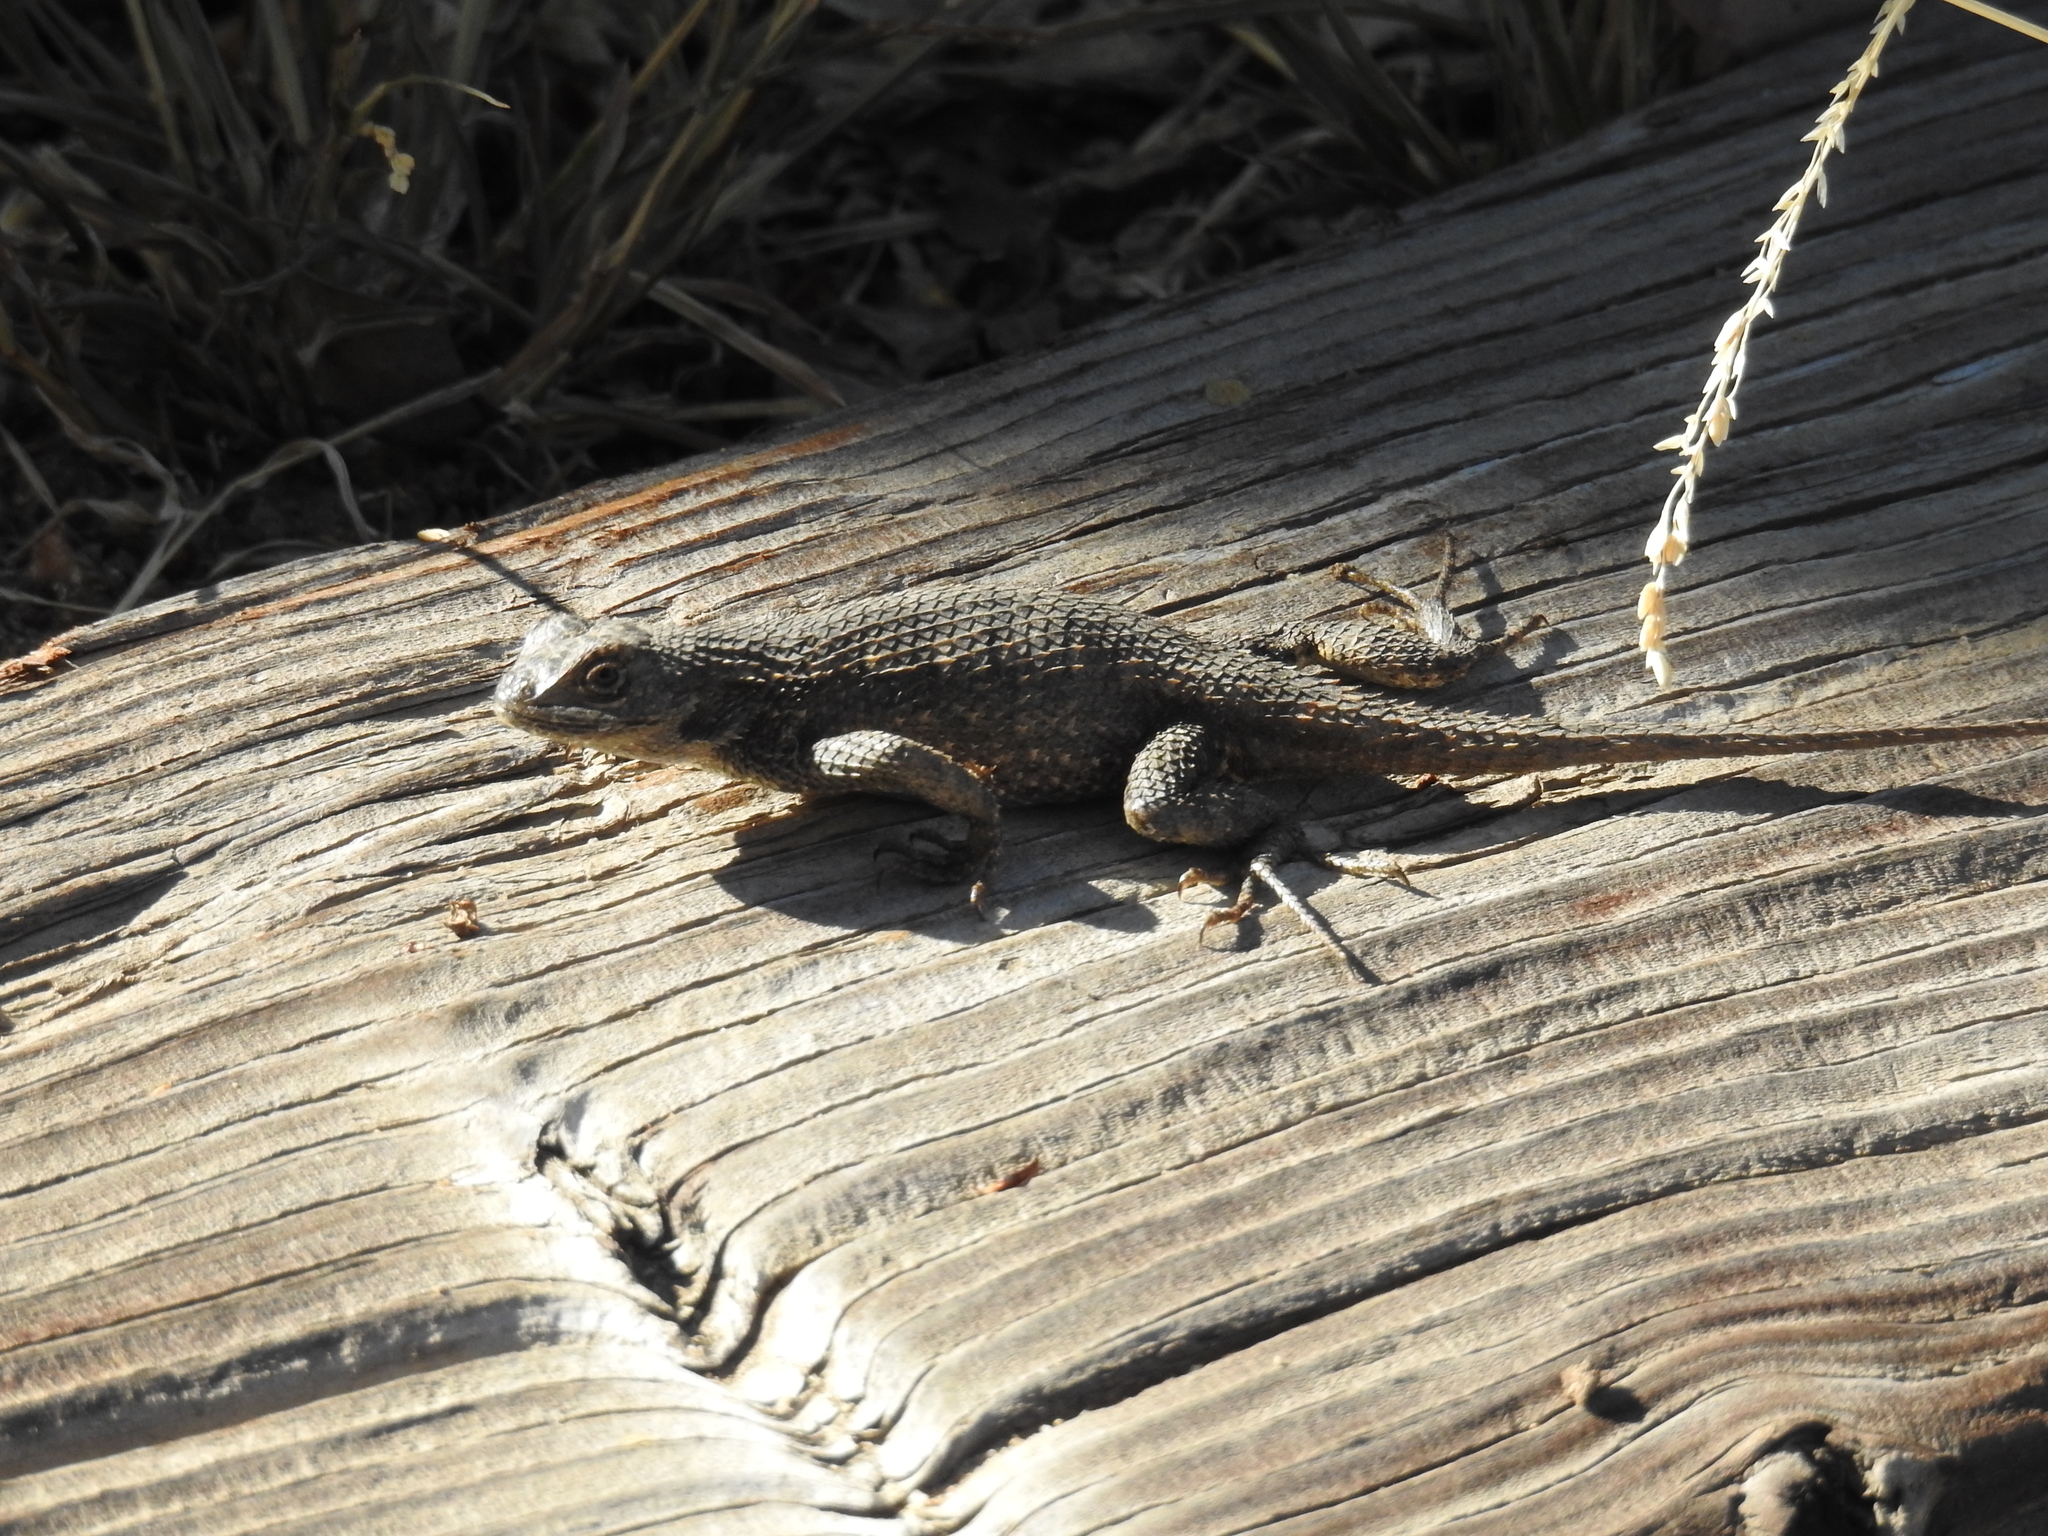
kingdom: Animalia
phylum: Chordata
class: Squamata
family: Phrynosomatidae
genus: Sceloporus
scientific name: Sceloporus occidentalis
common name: Western fence lizard
